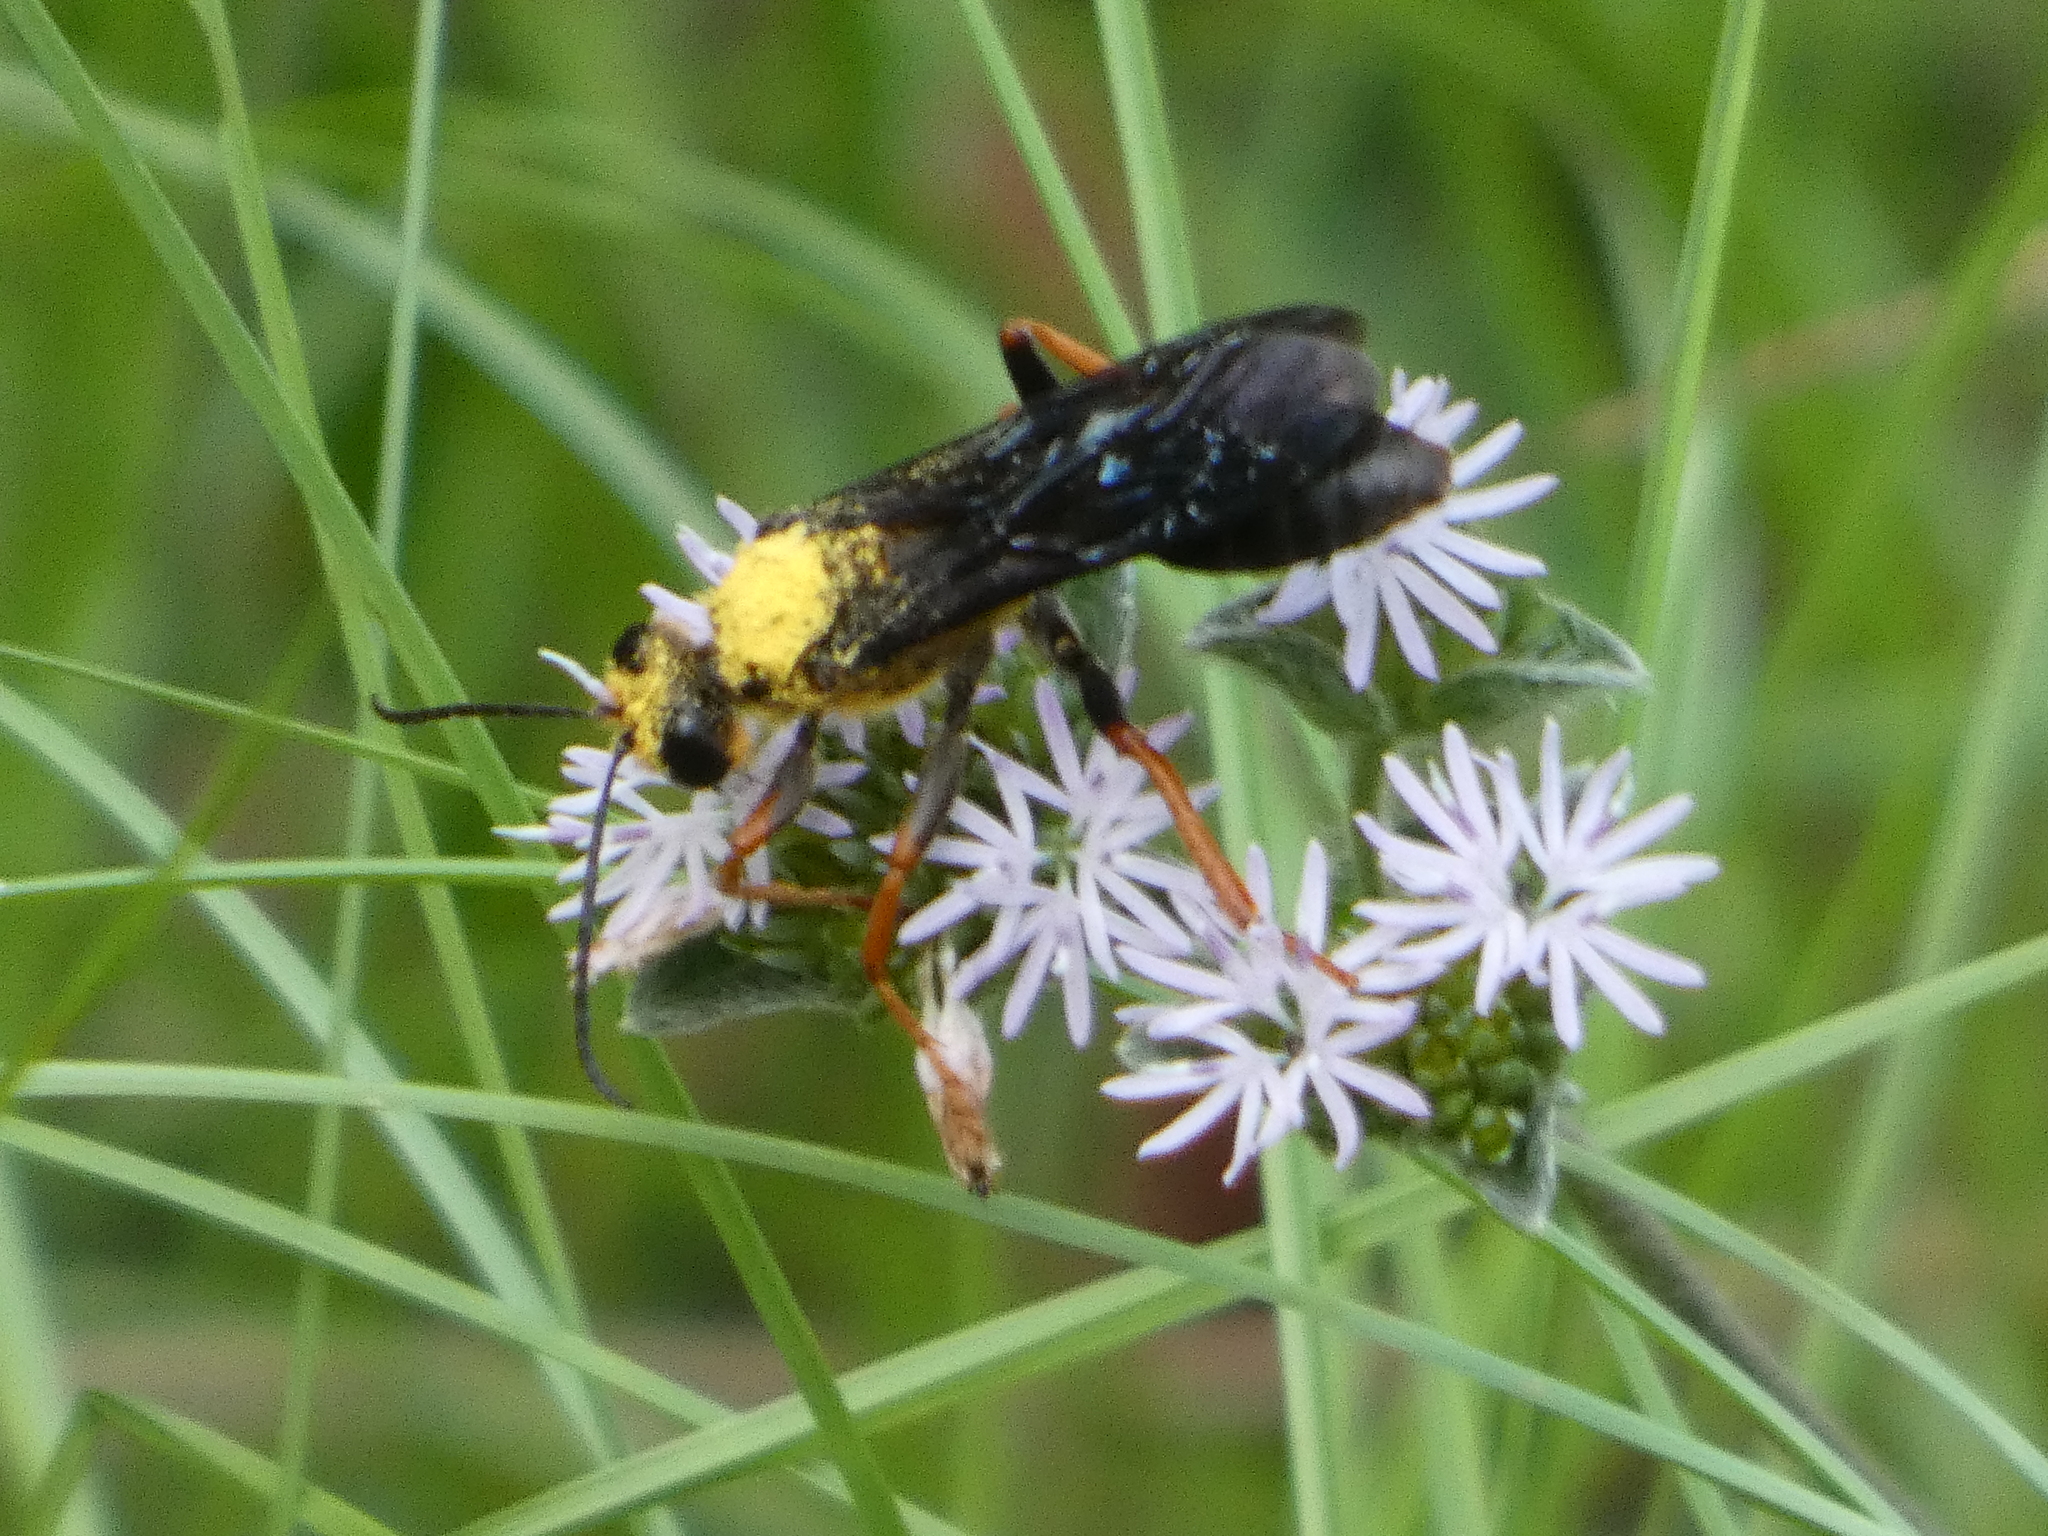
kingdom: Animalia
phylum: Arthropoda
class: Insecta
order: Hymenoptera
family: Sphecidae
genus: Sphex
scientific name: Sphex nudus
